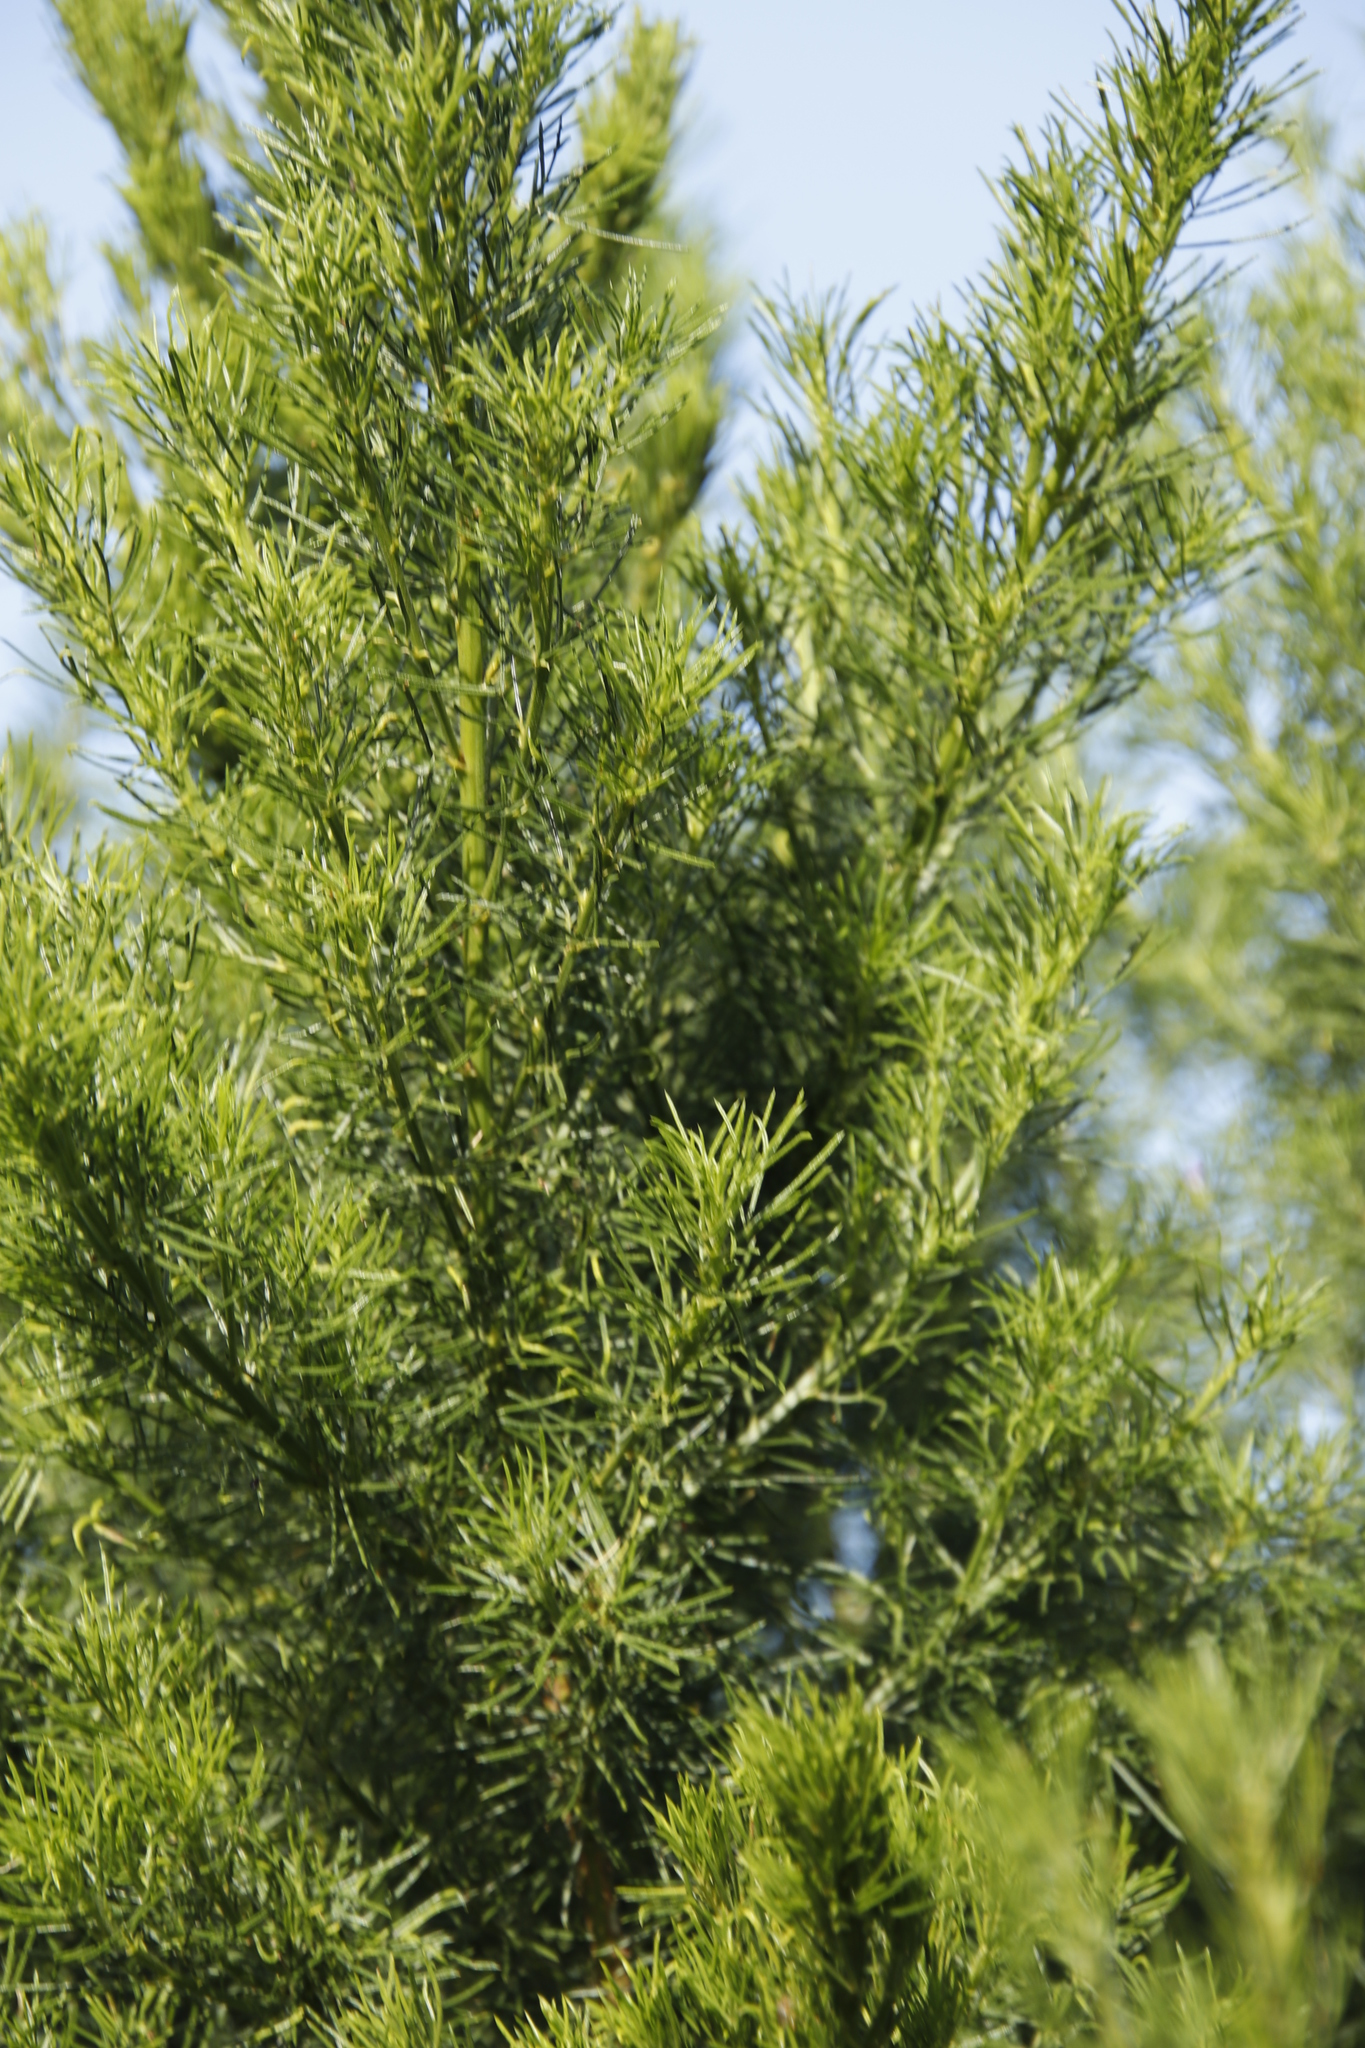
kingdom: Plantae
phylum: Tracheophyta
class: Magnoliopsida
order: Fabales
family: Fabaceae
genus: Psoralea
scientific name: Psoralea pinnata
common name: African scurfpea
